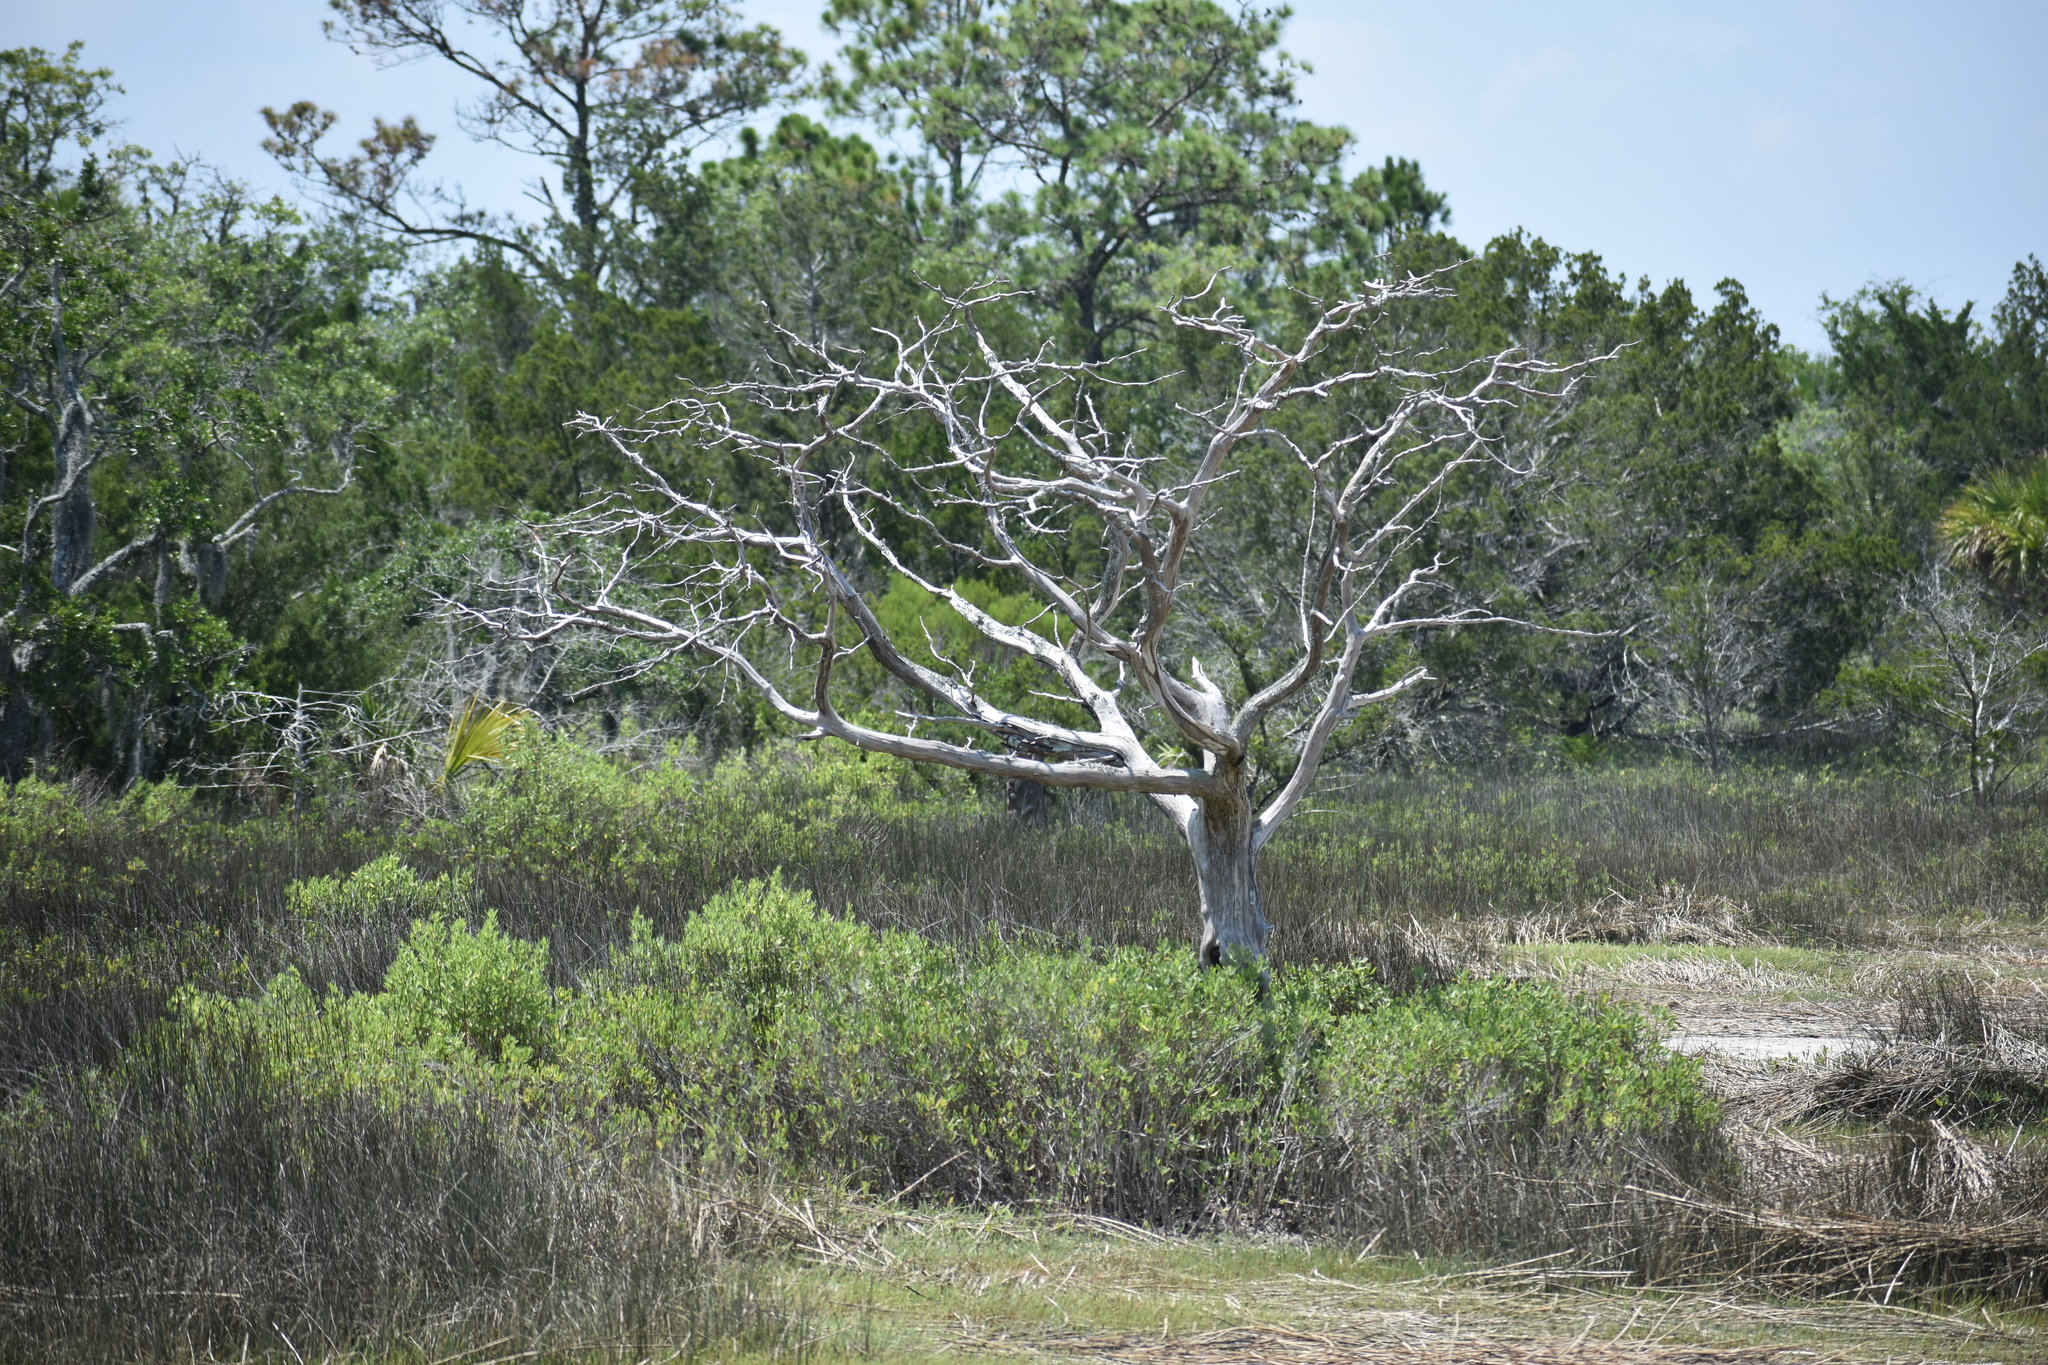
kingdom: Plantae
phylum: Tracheophyta
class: Pinopsida
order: Pinales
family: Cupressaceae
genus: Juniperus
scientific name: Juniperus virginiana
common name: Red juniper
